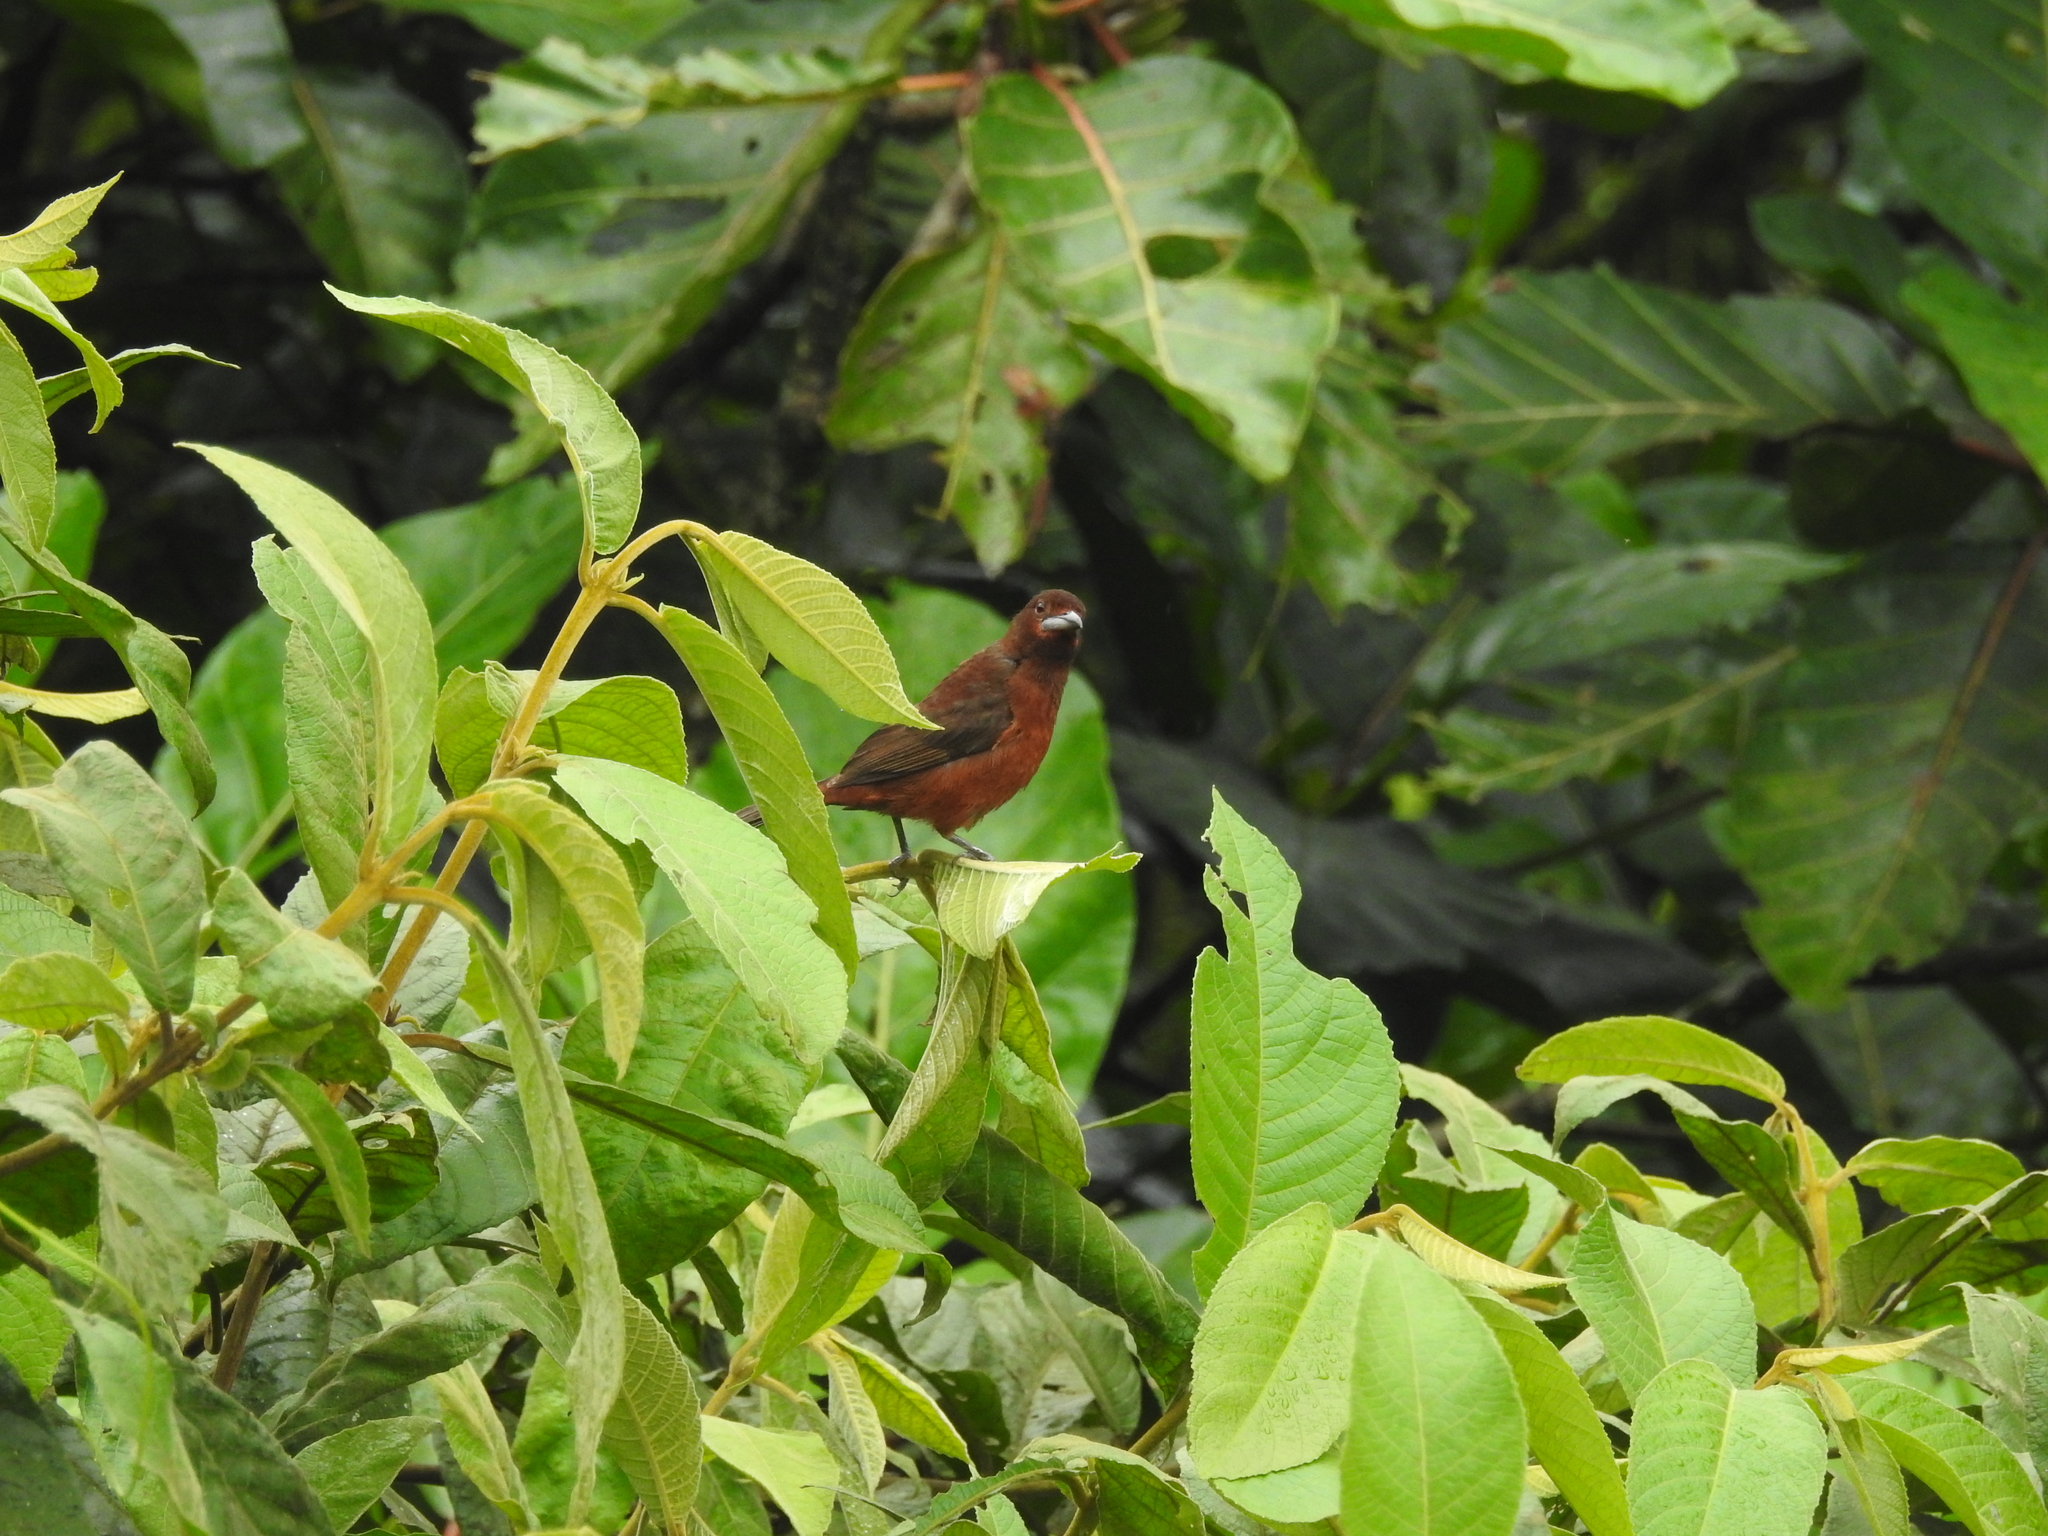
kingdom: Animalia
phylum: Chordata
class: Aves
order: Passeriformes
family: Thraupidae
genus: Ramphocelus
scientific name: Ramphocelus carbo
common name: Silver-beaked tanager
